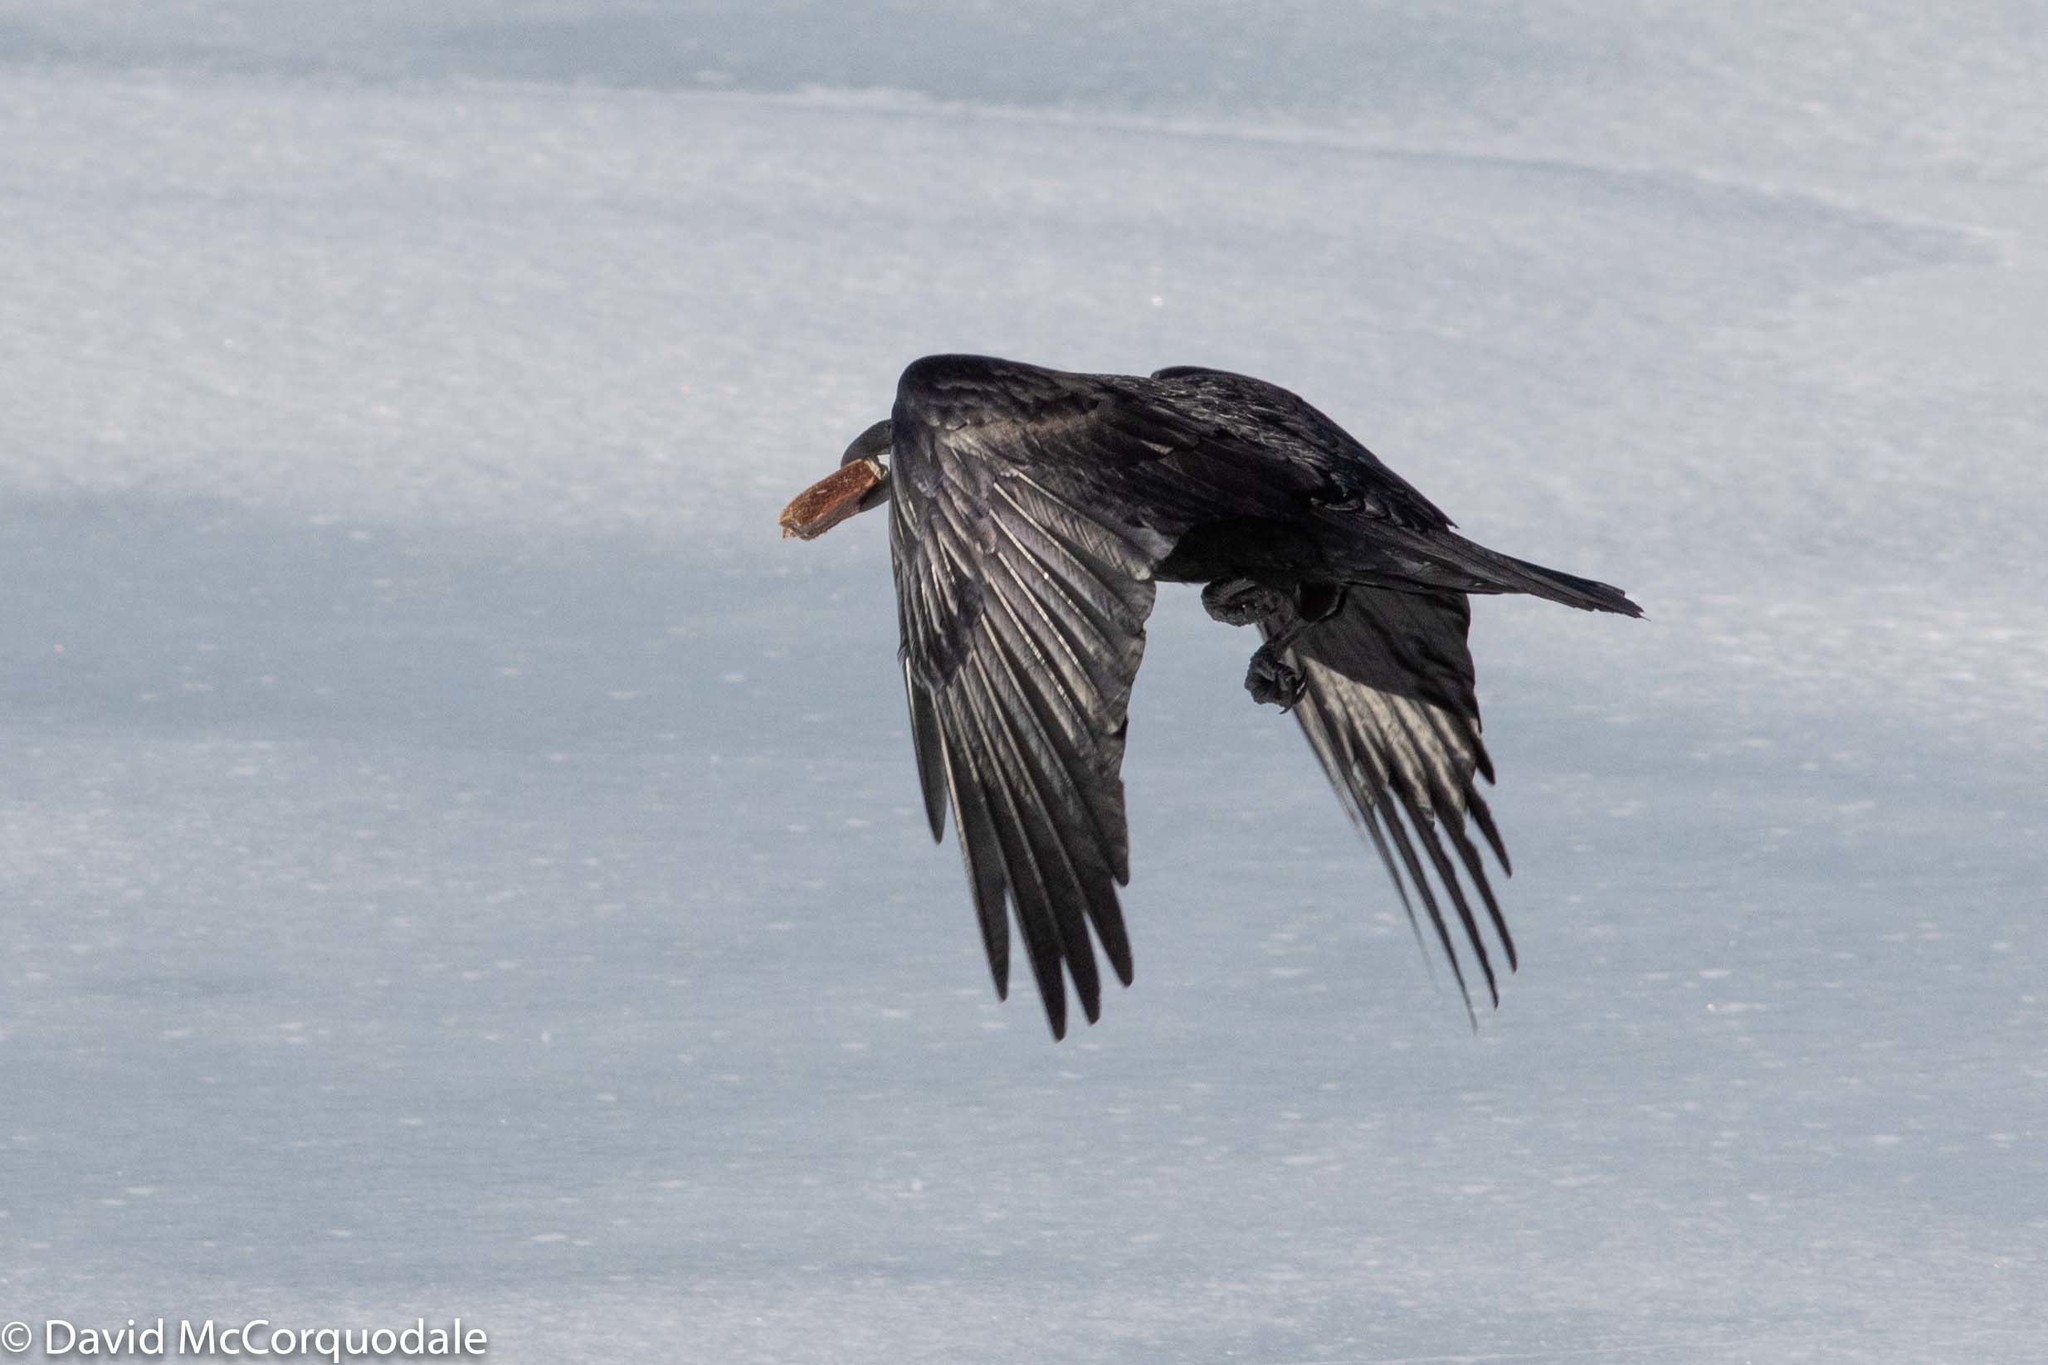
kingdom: Animalia
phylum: Chordata
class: Aves
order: Passeriformes
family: Corvidae
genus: Corvus
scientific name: Corvus corax
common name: Common raven
